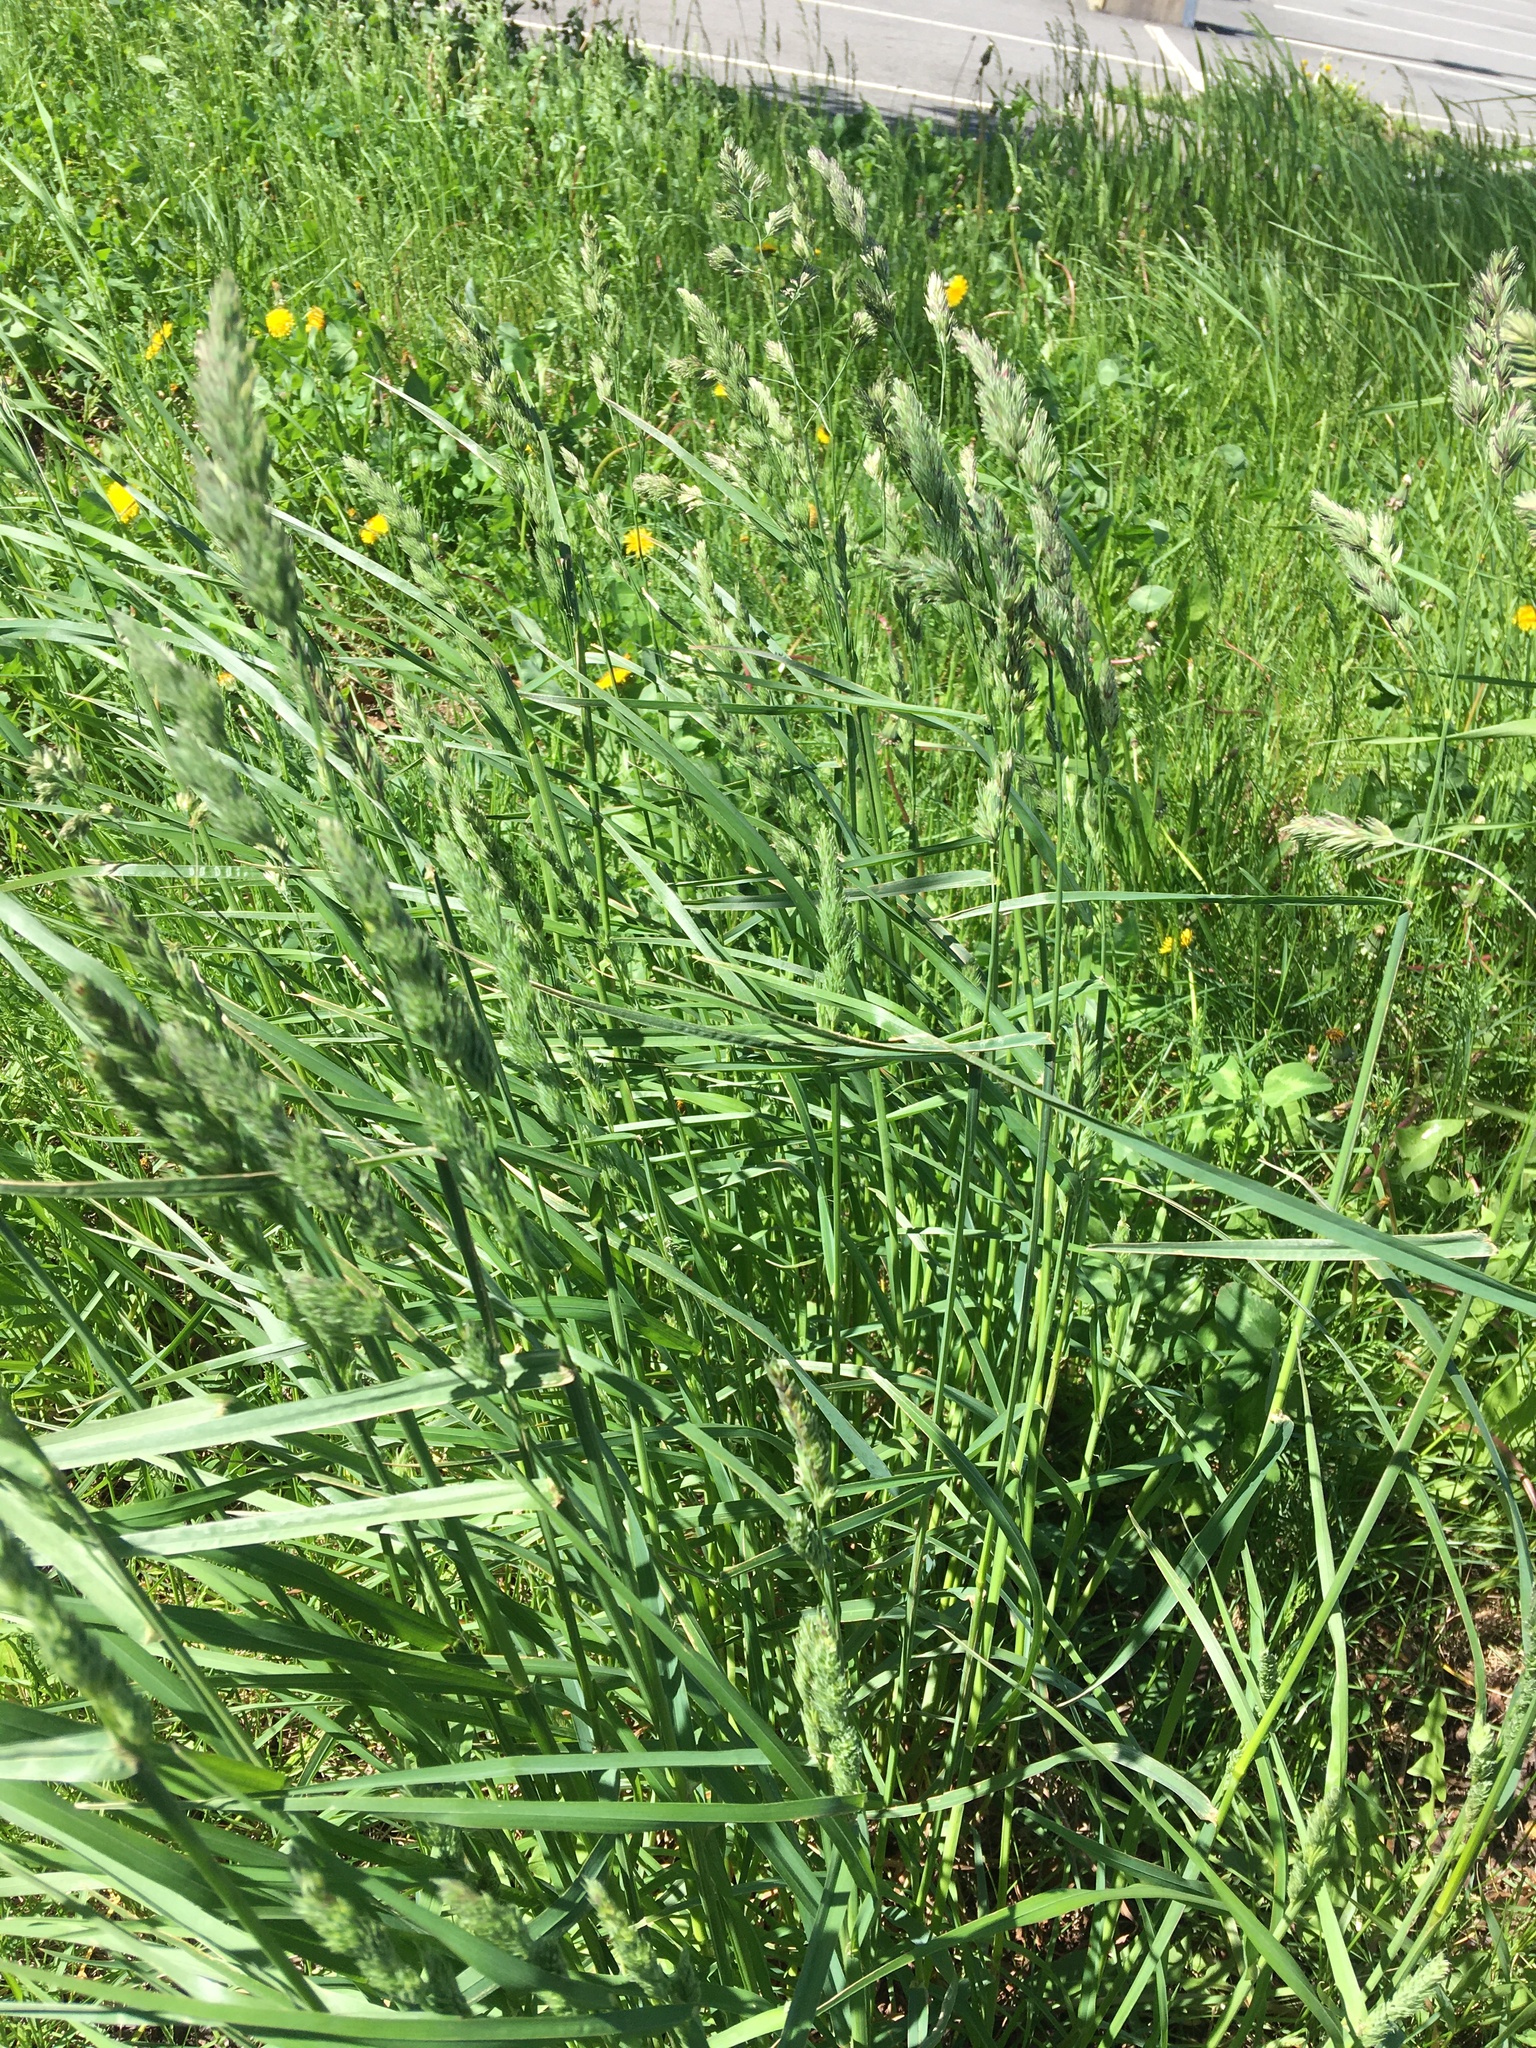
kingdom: Plantae
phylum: Tracheophyta
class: Liliopsida
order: Poales
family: Poaceae
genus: Dactylis
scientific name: Dactylis glomerata
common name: Orchardgrass
